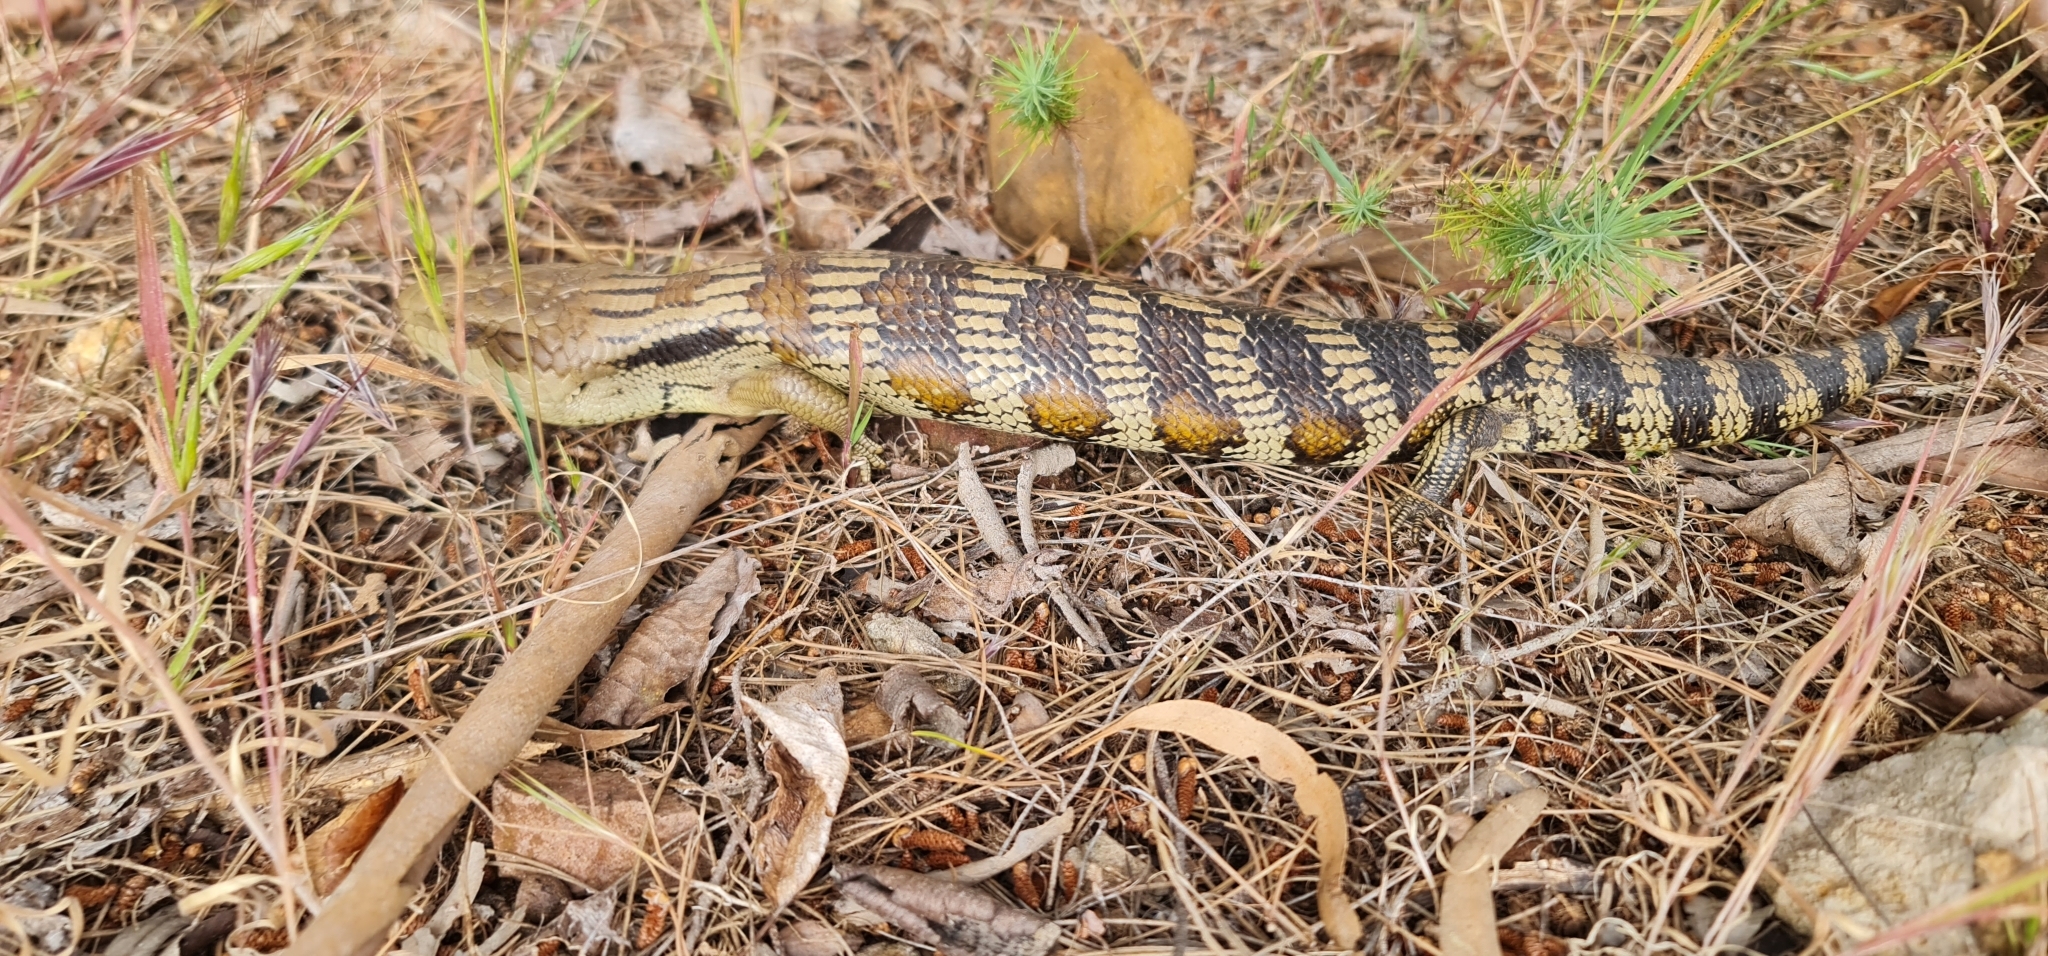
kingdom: Animalia
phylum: Chordata
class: Squamata
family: Scincidae
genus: Tiliqua
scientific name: Tiliqua scincoides
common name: Common bluetongue
